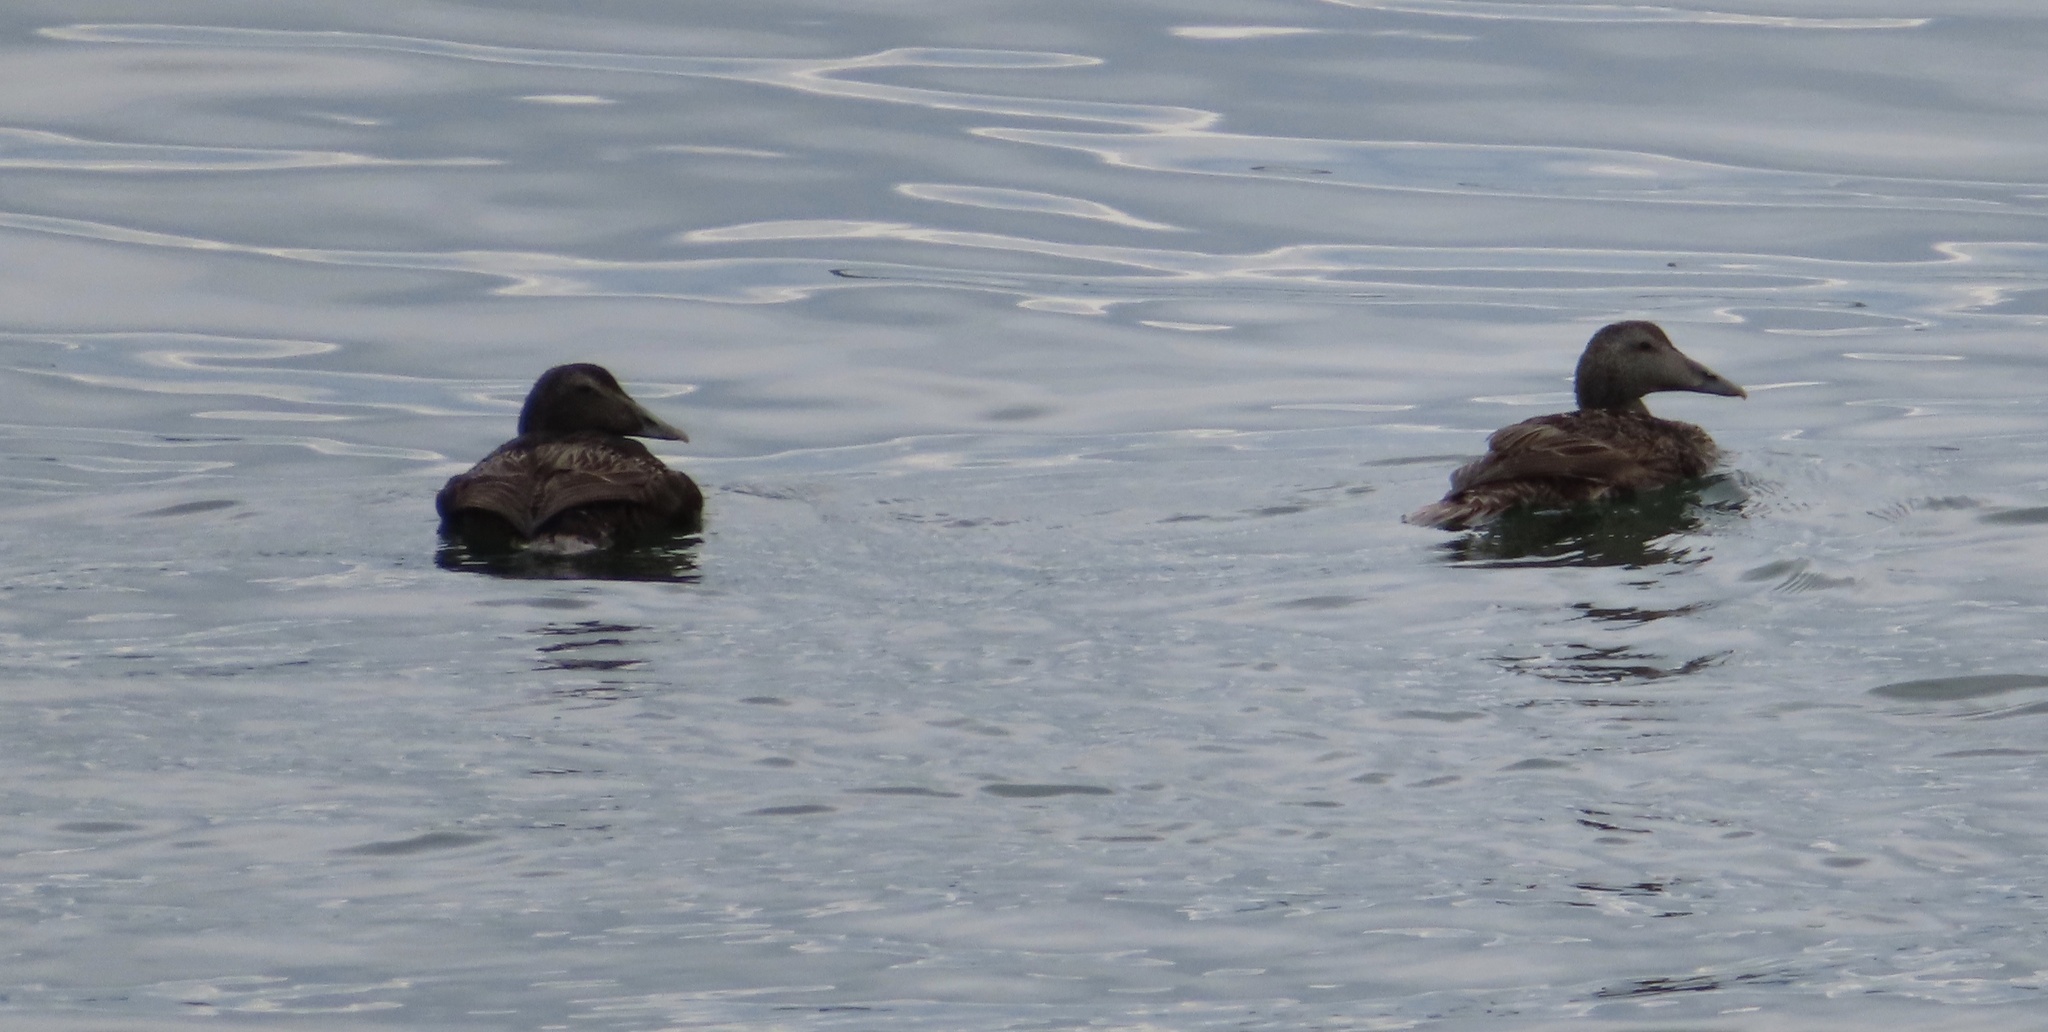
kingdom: Animalia
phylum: Chordata
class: Aves
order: Anseriformes
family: Anatidae
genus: Somateria
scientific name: Somateria mollissima
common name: Common eider
